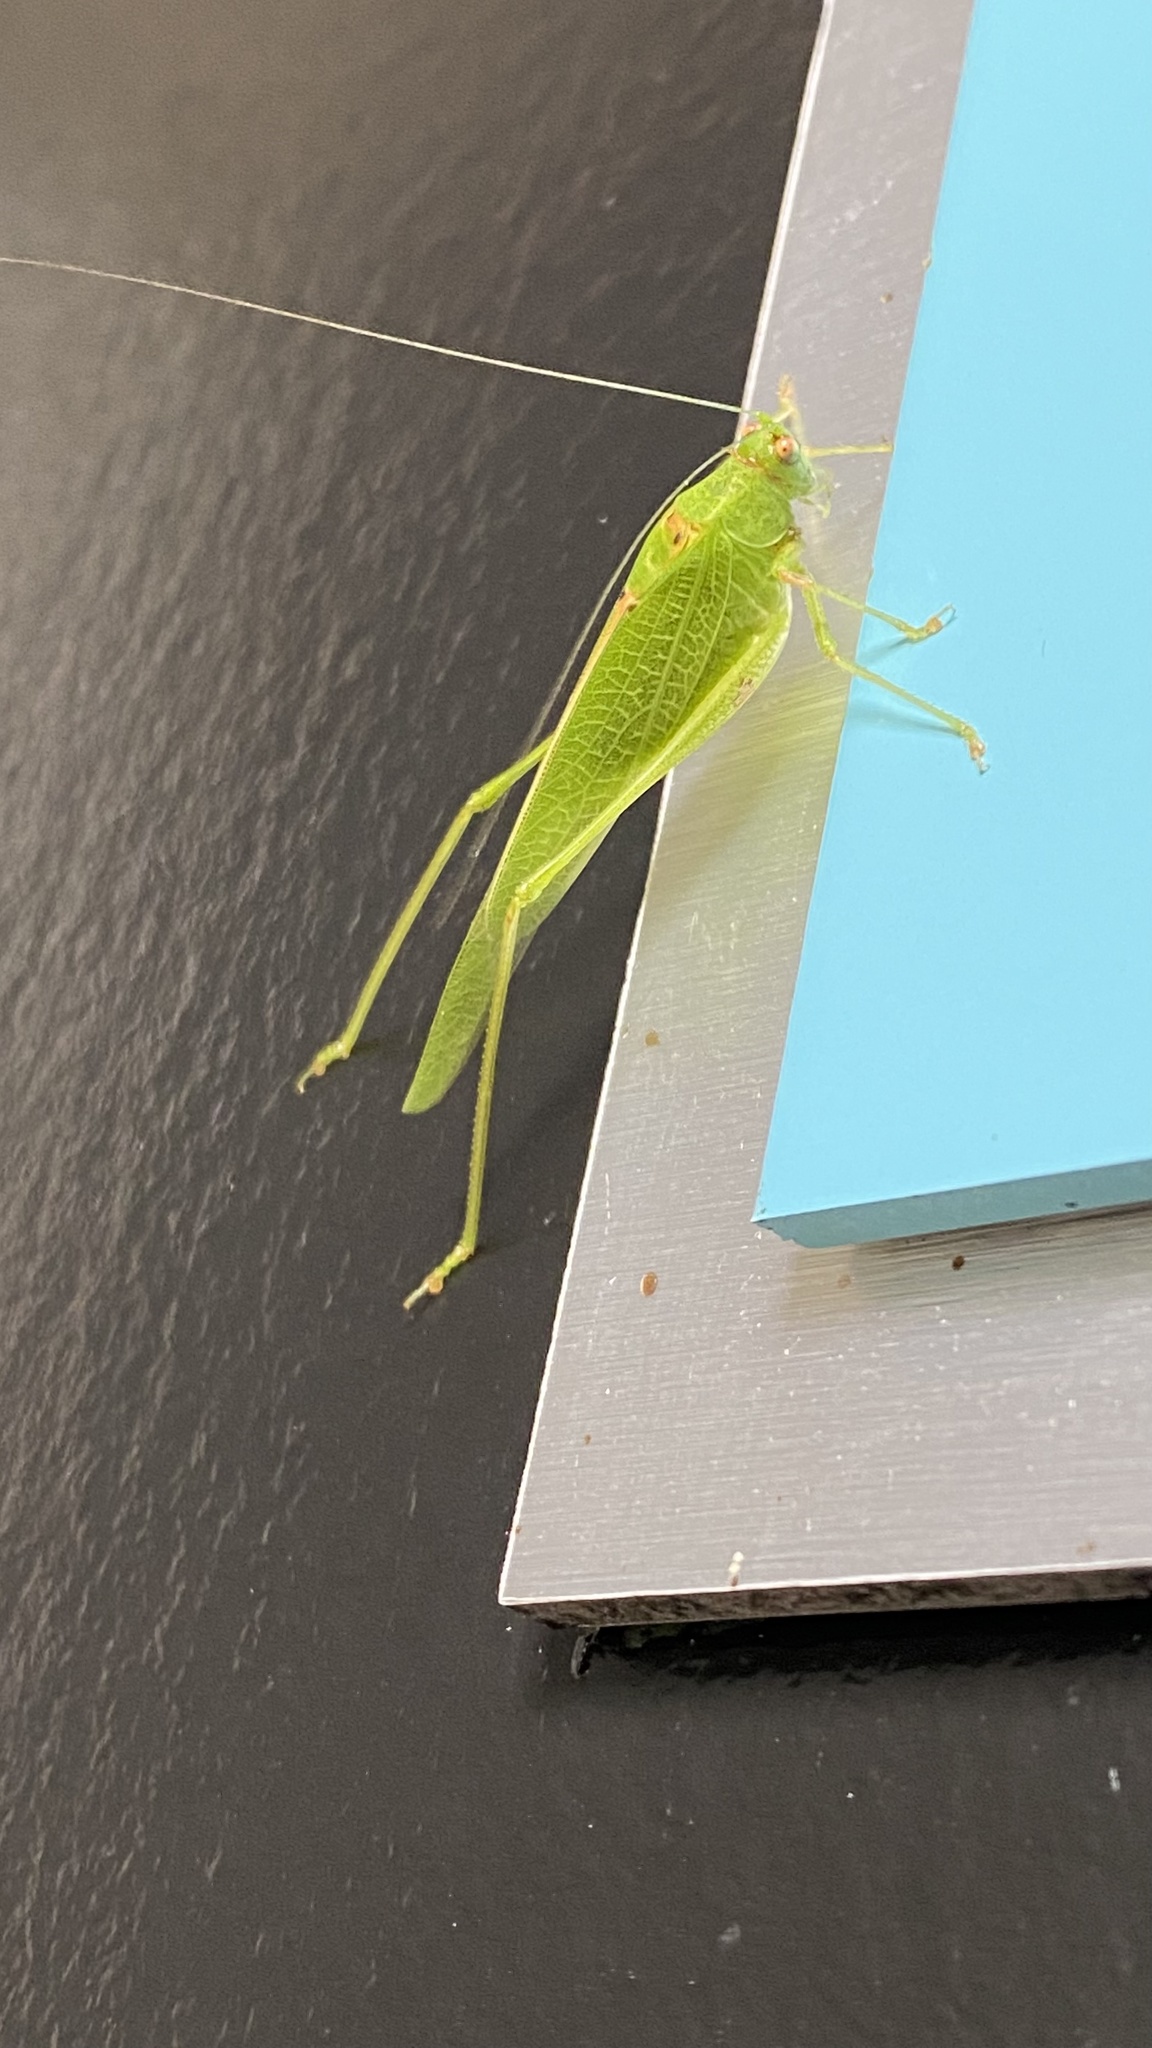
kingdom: Animalia
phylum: Arthropoda
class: Insecta
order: Orthoptera
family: Tettigoniidae
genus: Phaneroptera
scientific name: Phaneroptera nana
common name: Southern sickle bush-cricket
